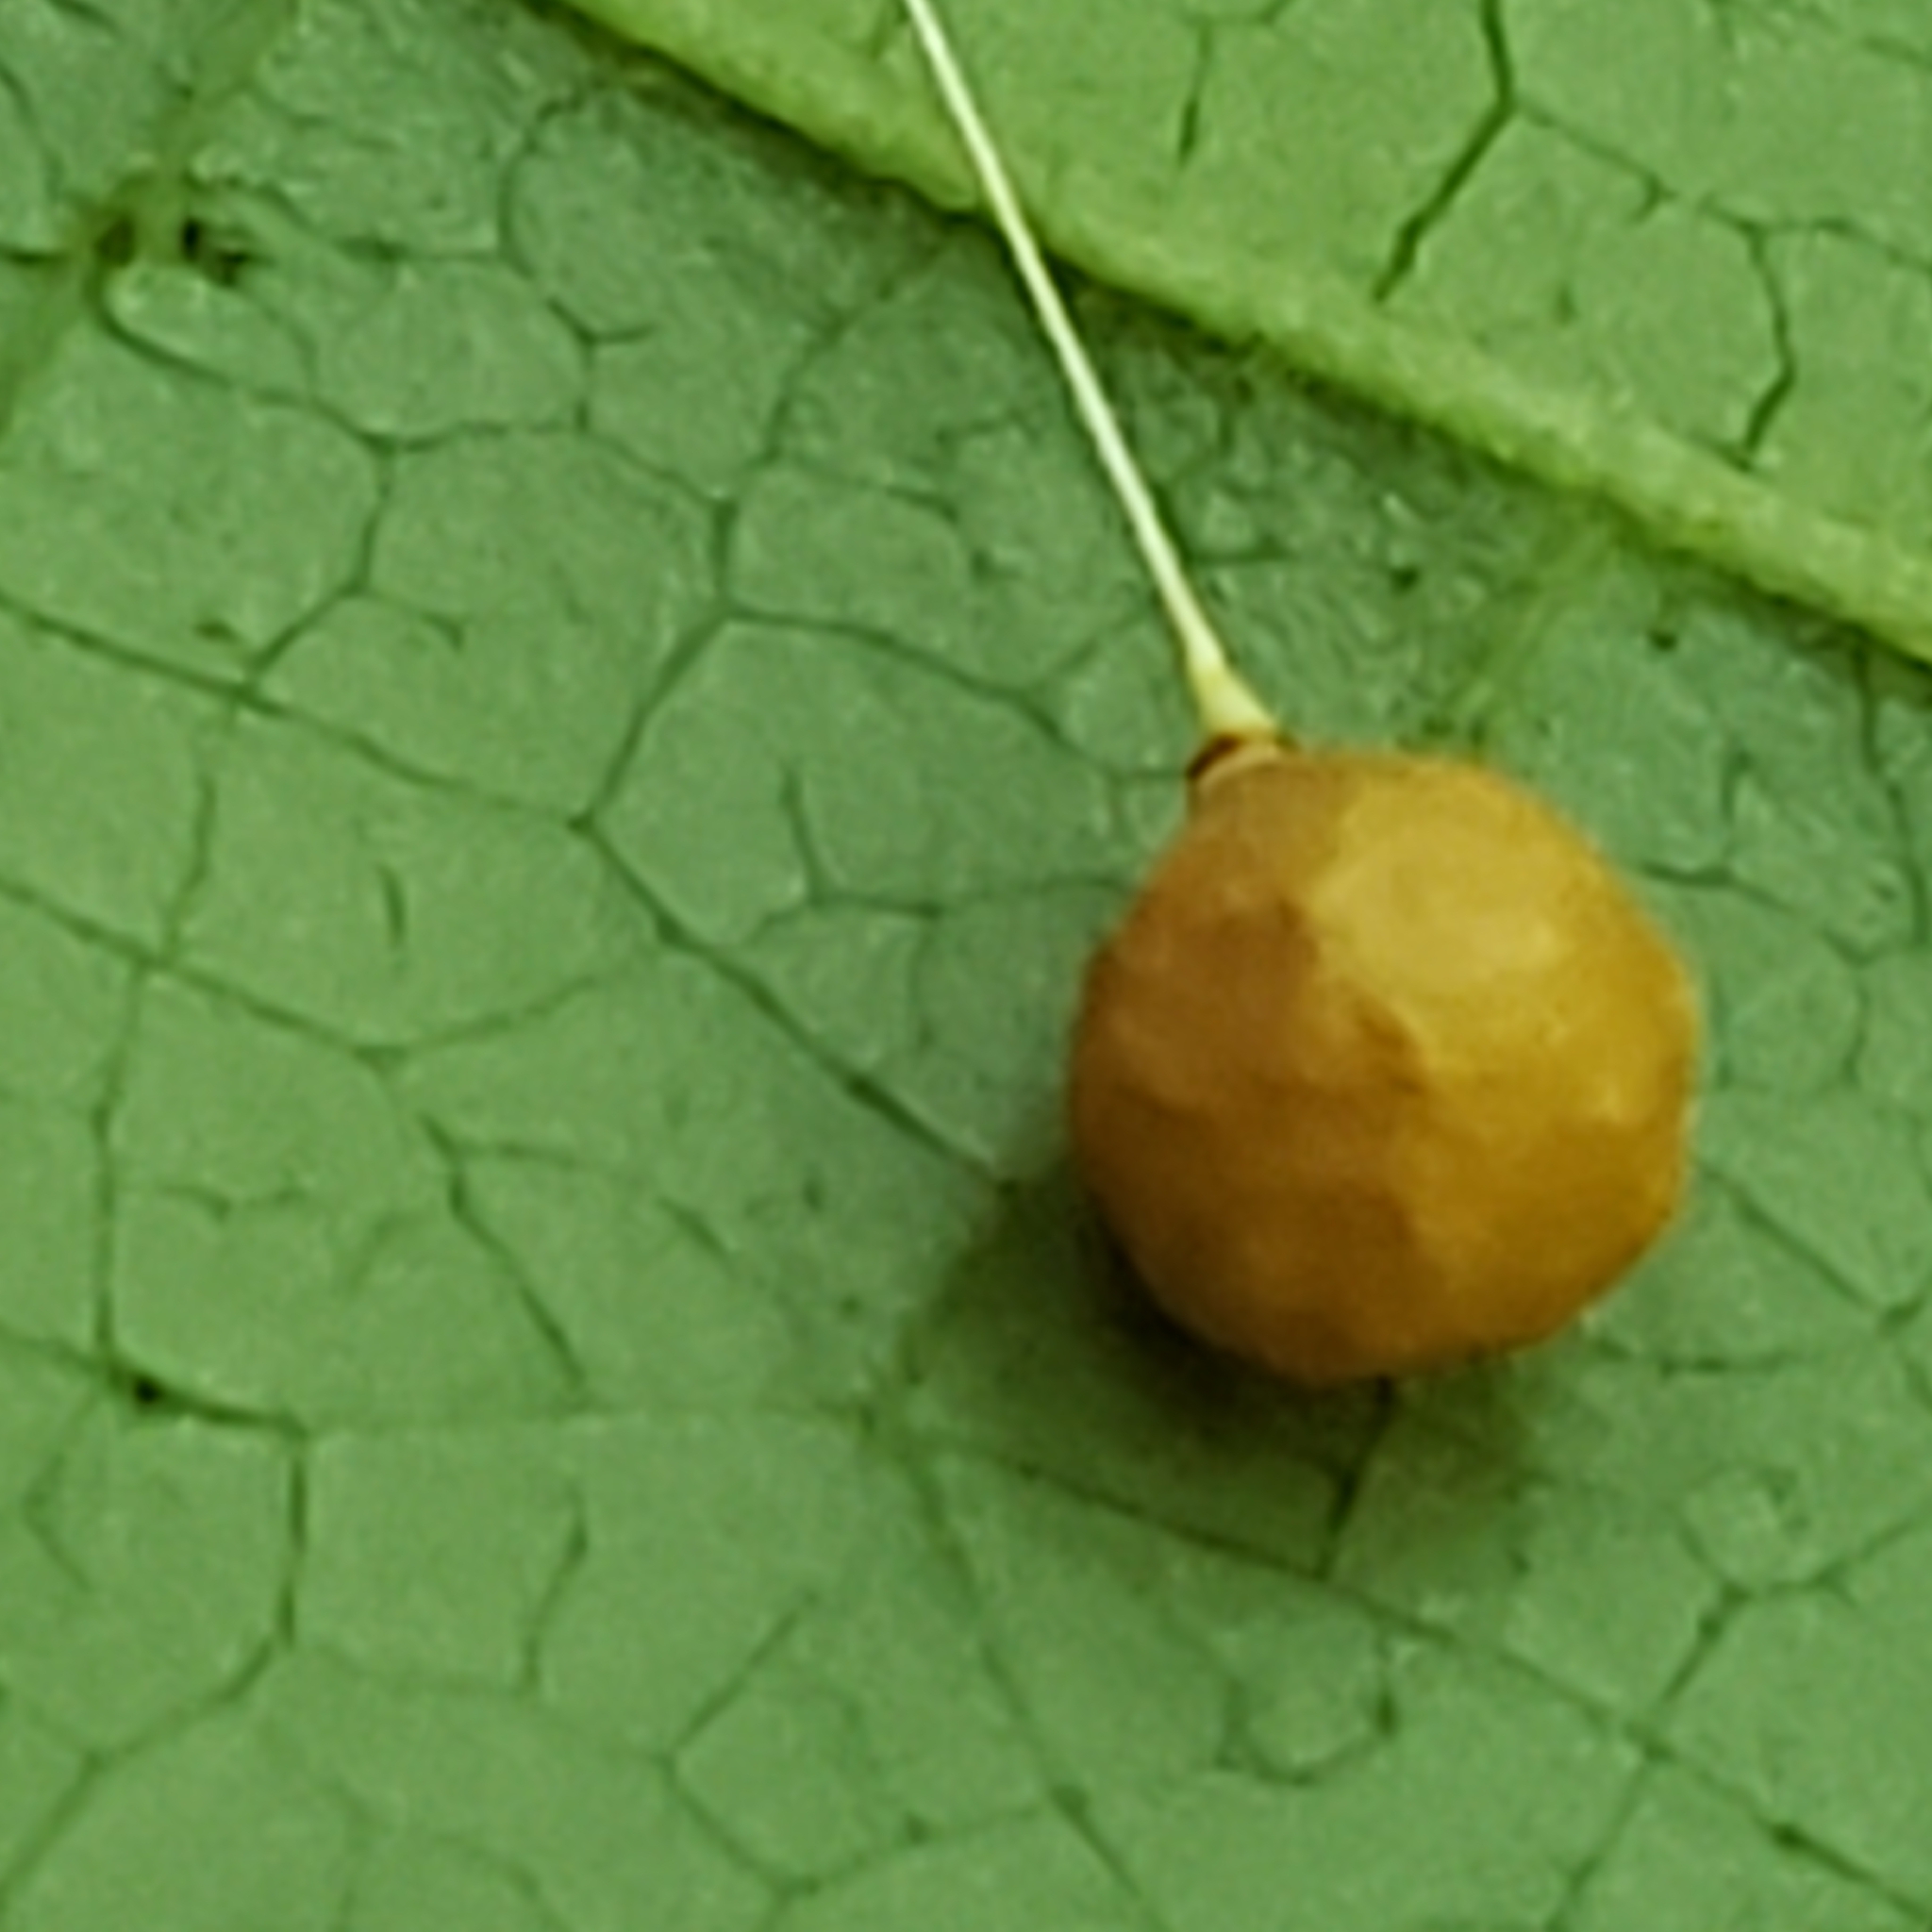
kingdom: Animalia
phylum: Arthropoda
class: Arachnida
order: Araneae
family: Theridiosomatidae
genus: Theridiosoma
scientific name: Theridiosoma gemmosum
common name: Ray spider
